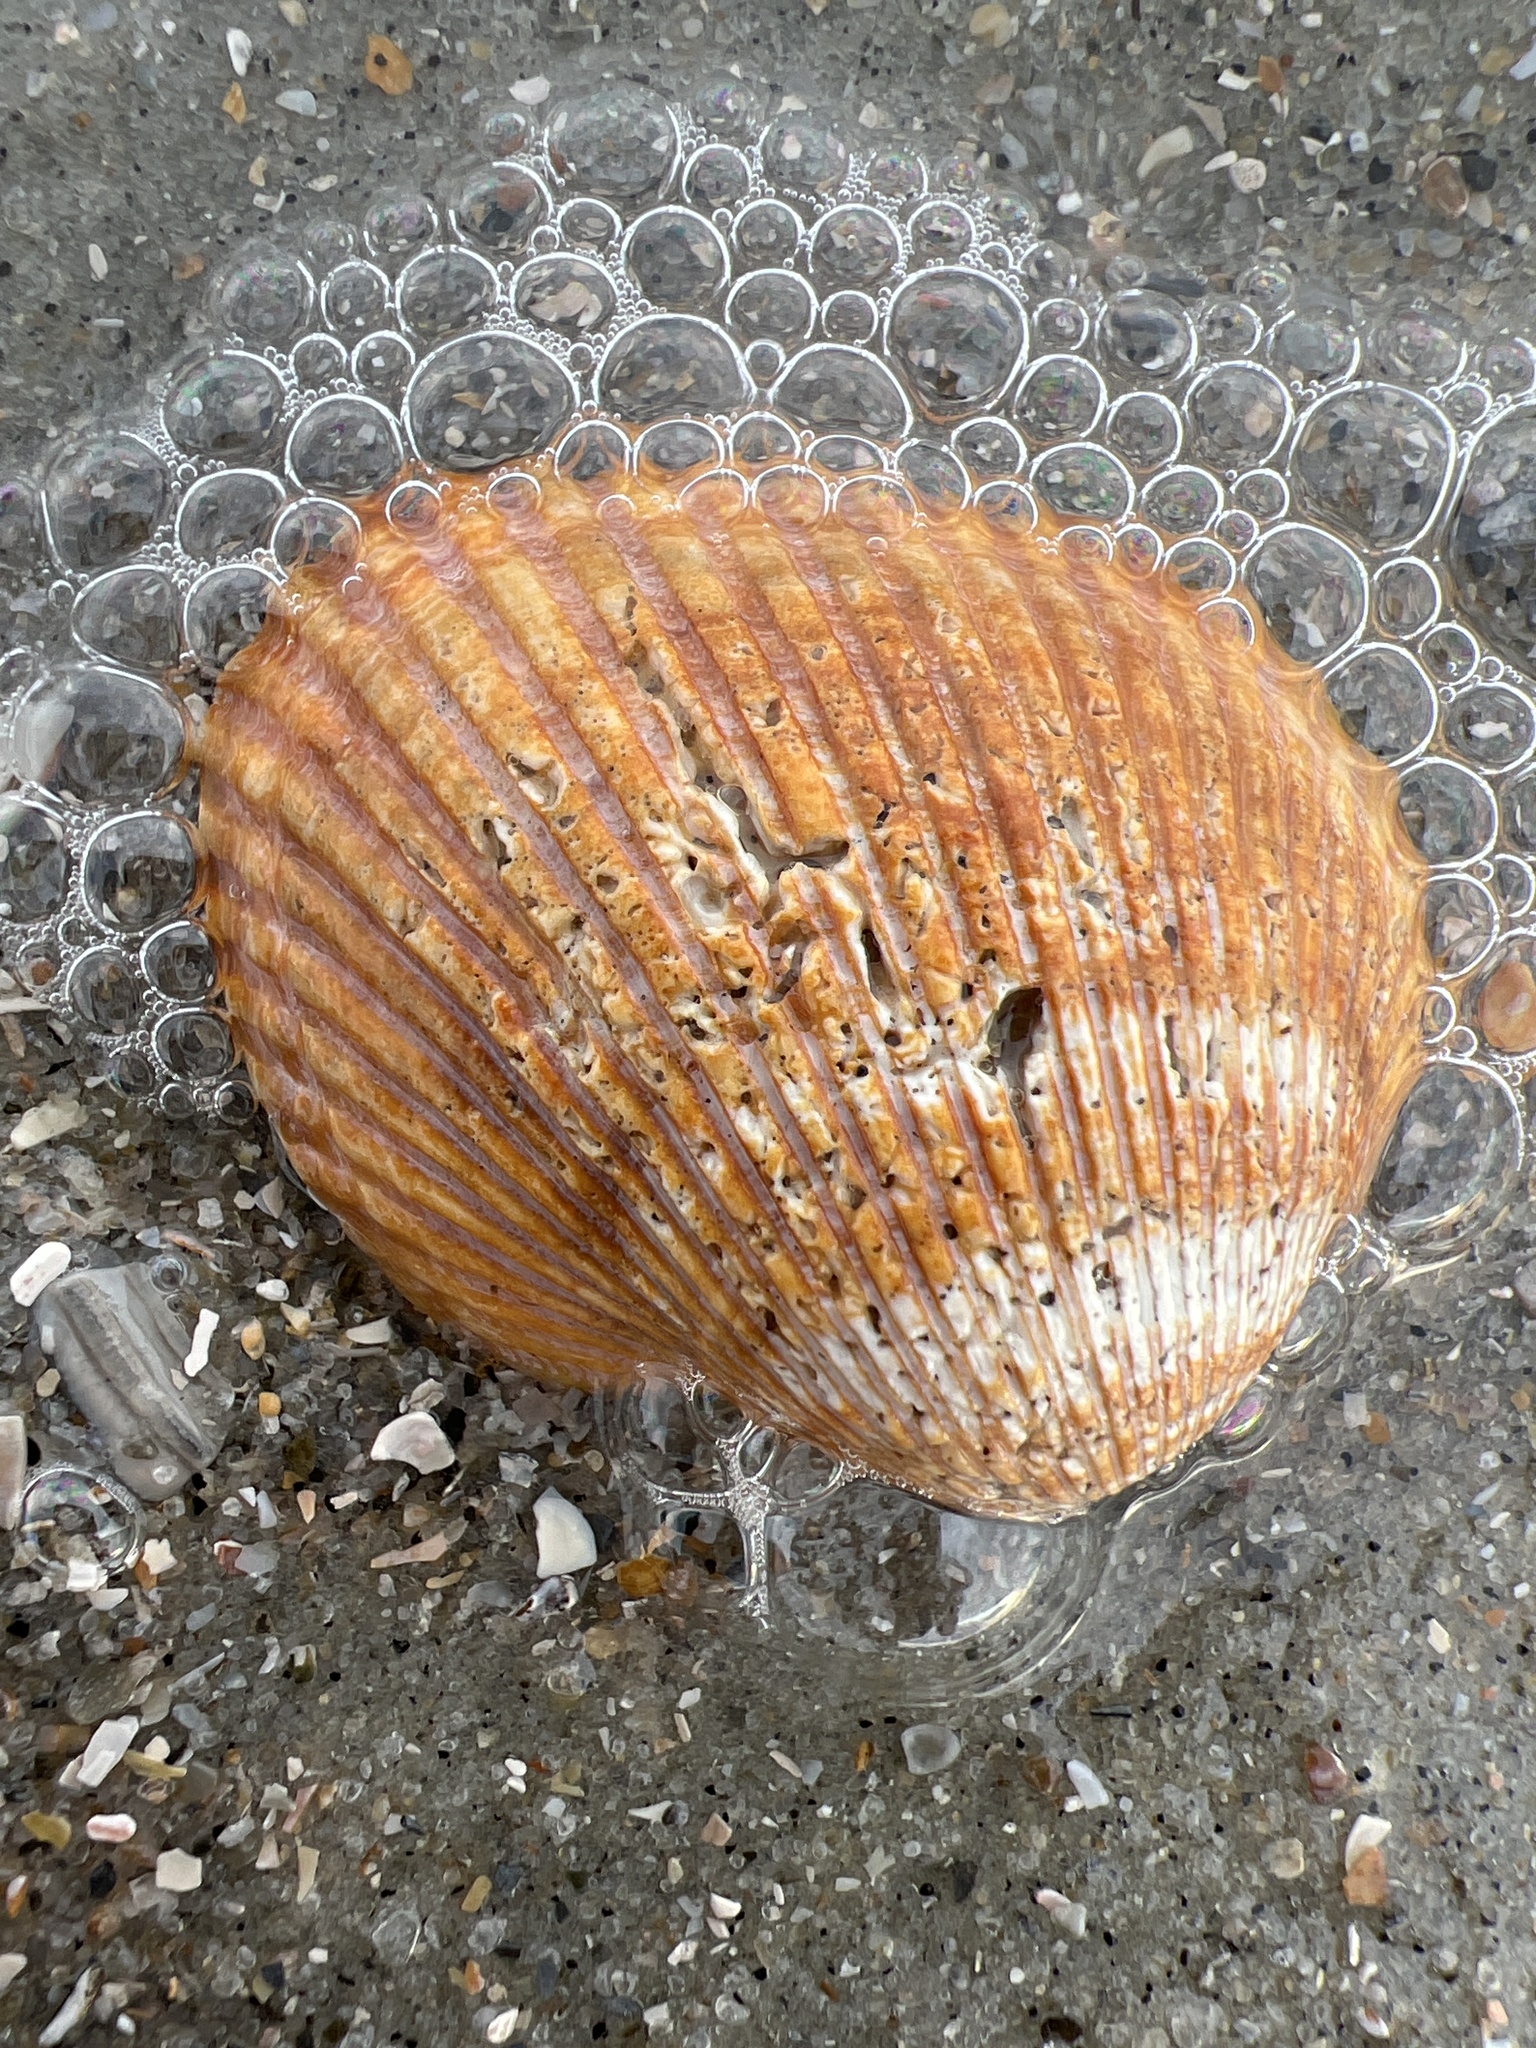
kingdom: Animalia
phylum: Mollusca
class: Bivalvia
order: Arcida
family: Arcidae
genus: Lunarca
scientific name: Lunarca ovalis
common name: Blood ark
